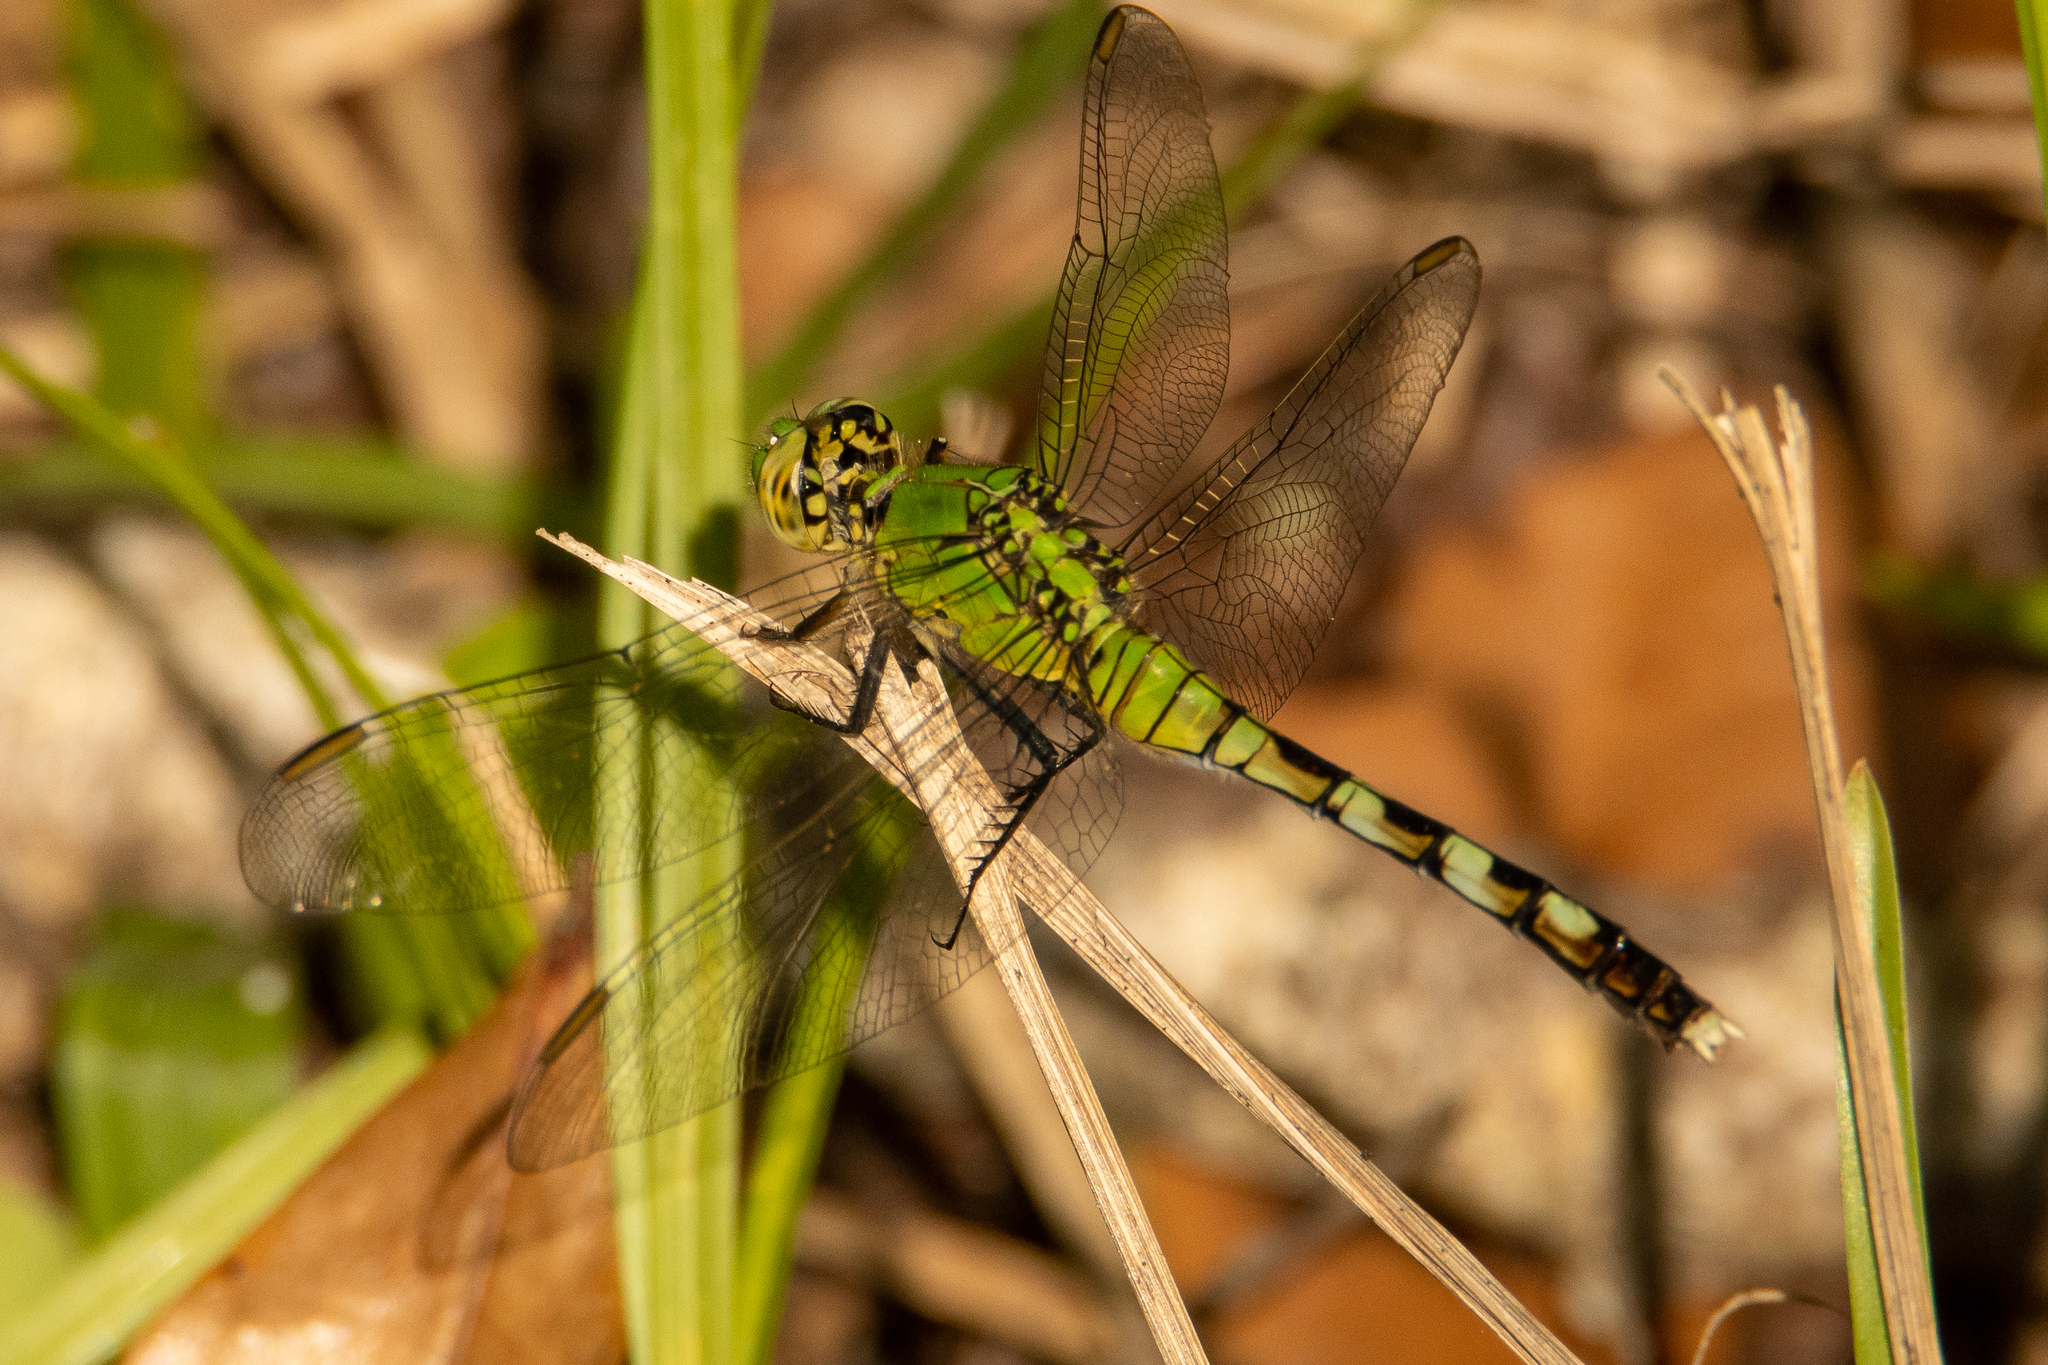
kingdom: Animalia
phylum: Arthropoda
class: Insecta
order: Odonata
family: Libellulidae
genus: Erythemis
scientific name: Erythemis simplicicollis
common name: Eastern pondhawk
